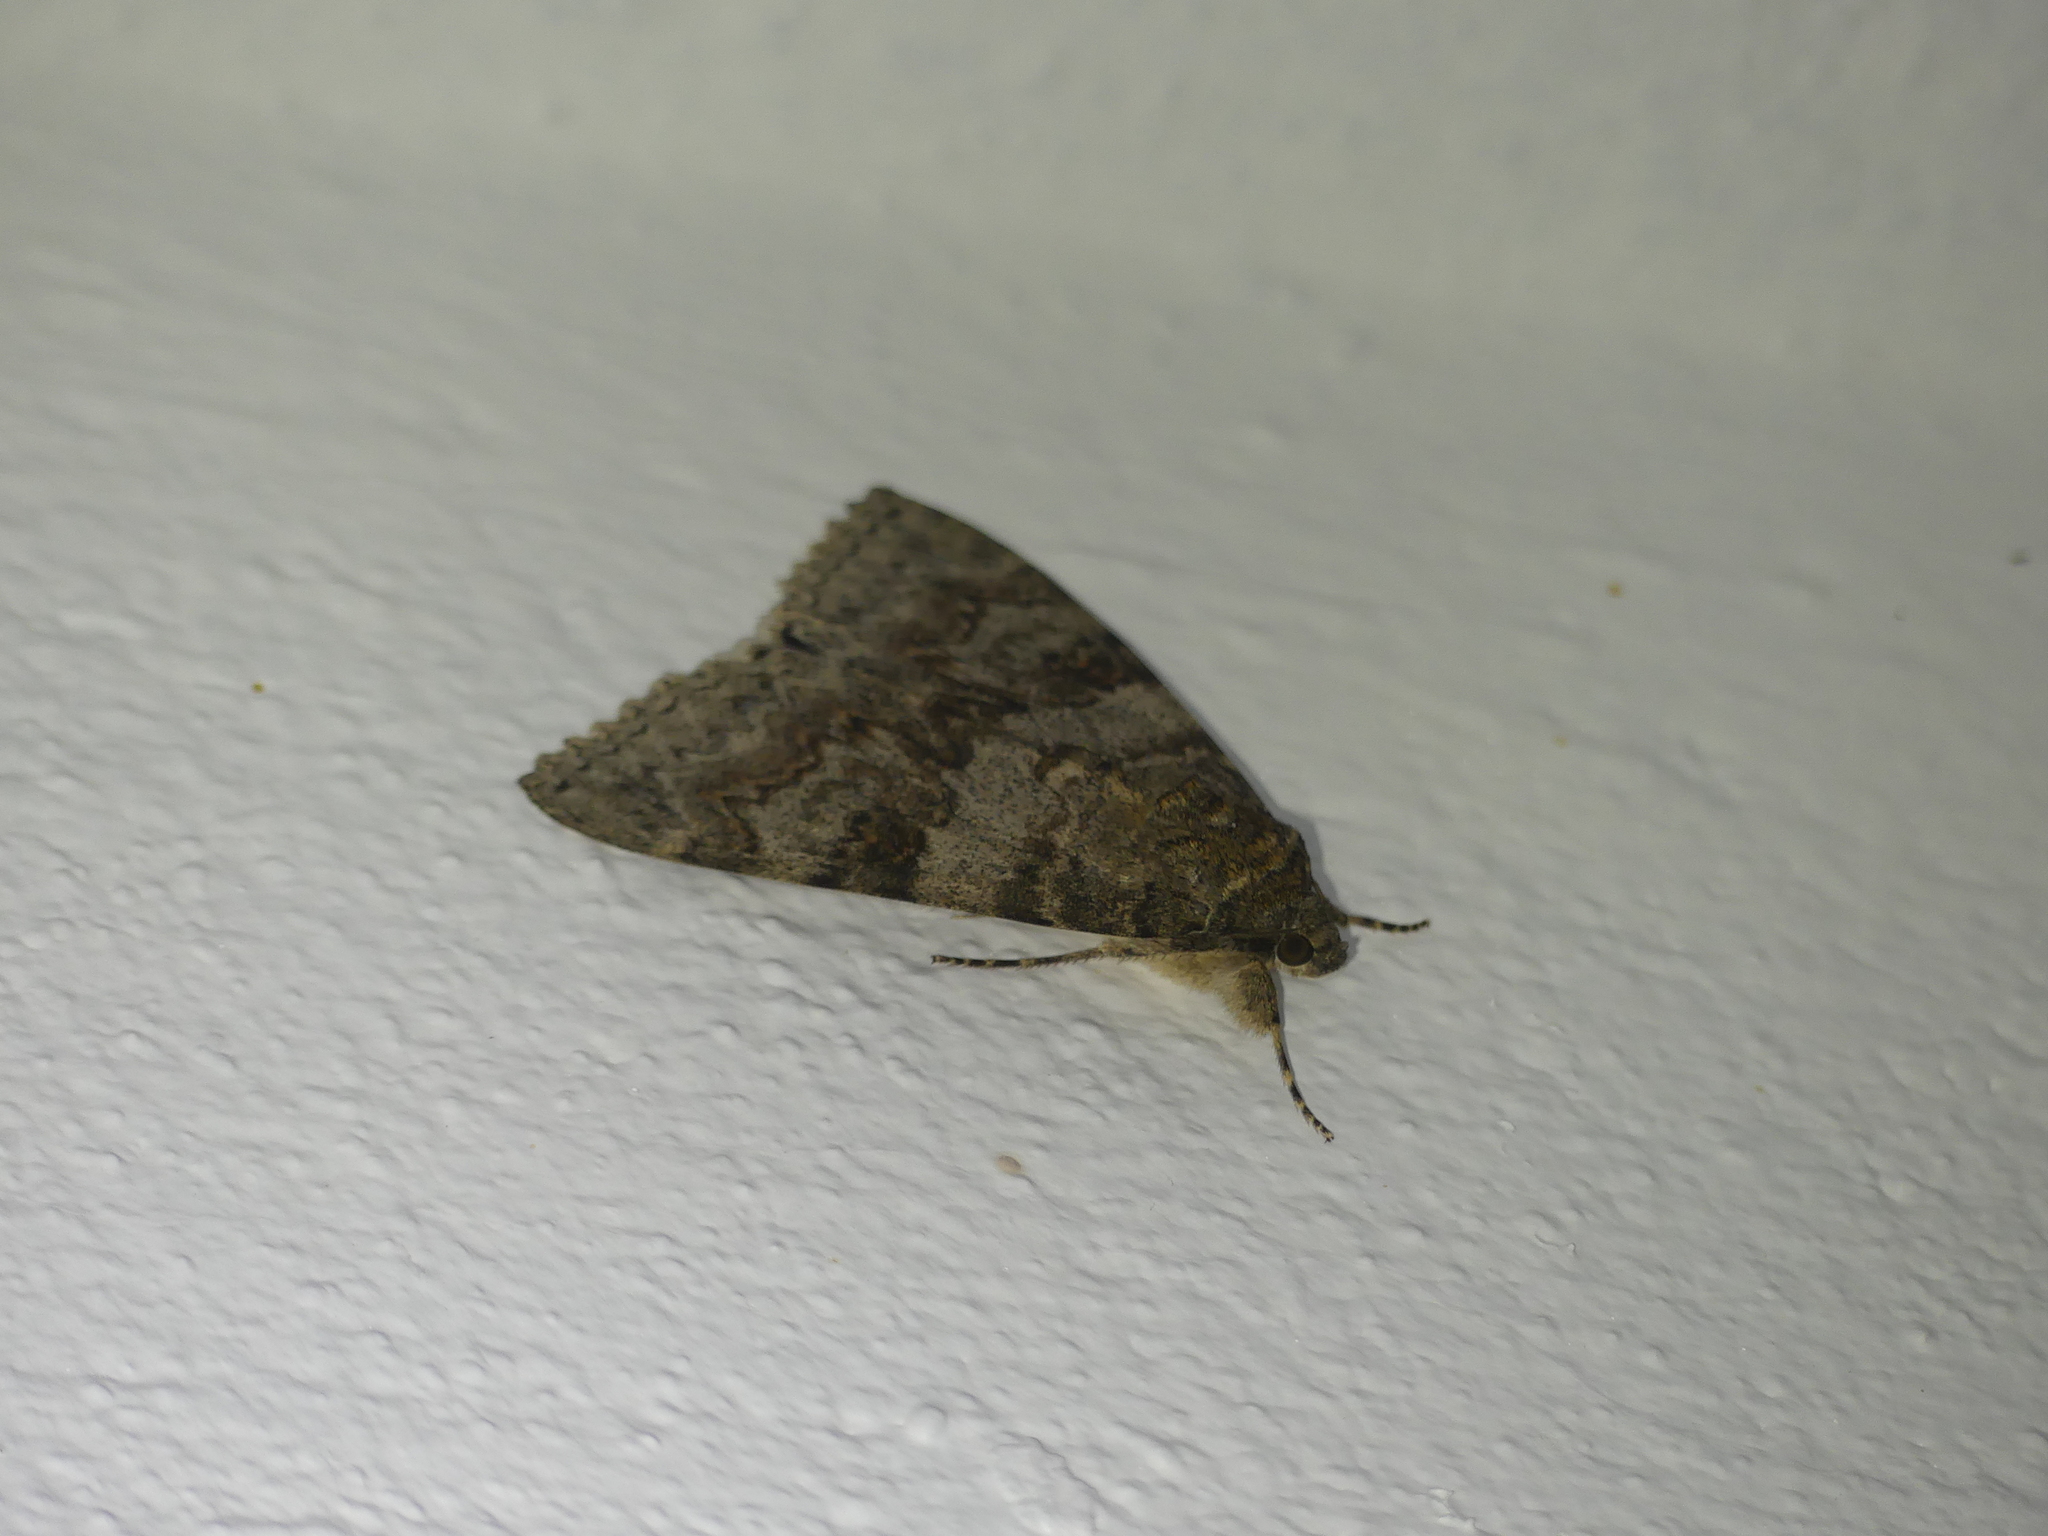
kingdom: Animalia
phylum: Arthropoda
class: Insecta
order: Lepidoptera
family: Erebidae
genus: Catocala
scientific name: Catocala elocata
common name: French red underwing
